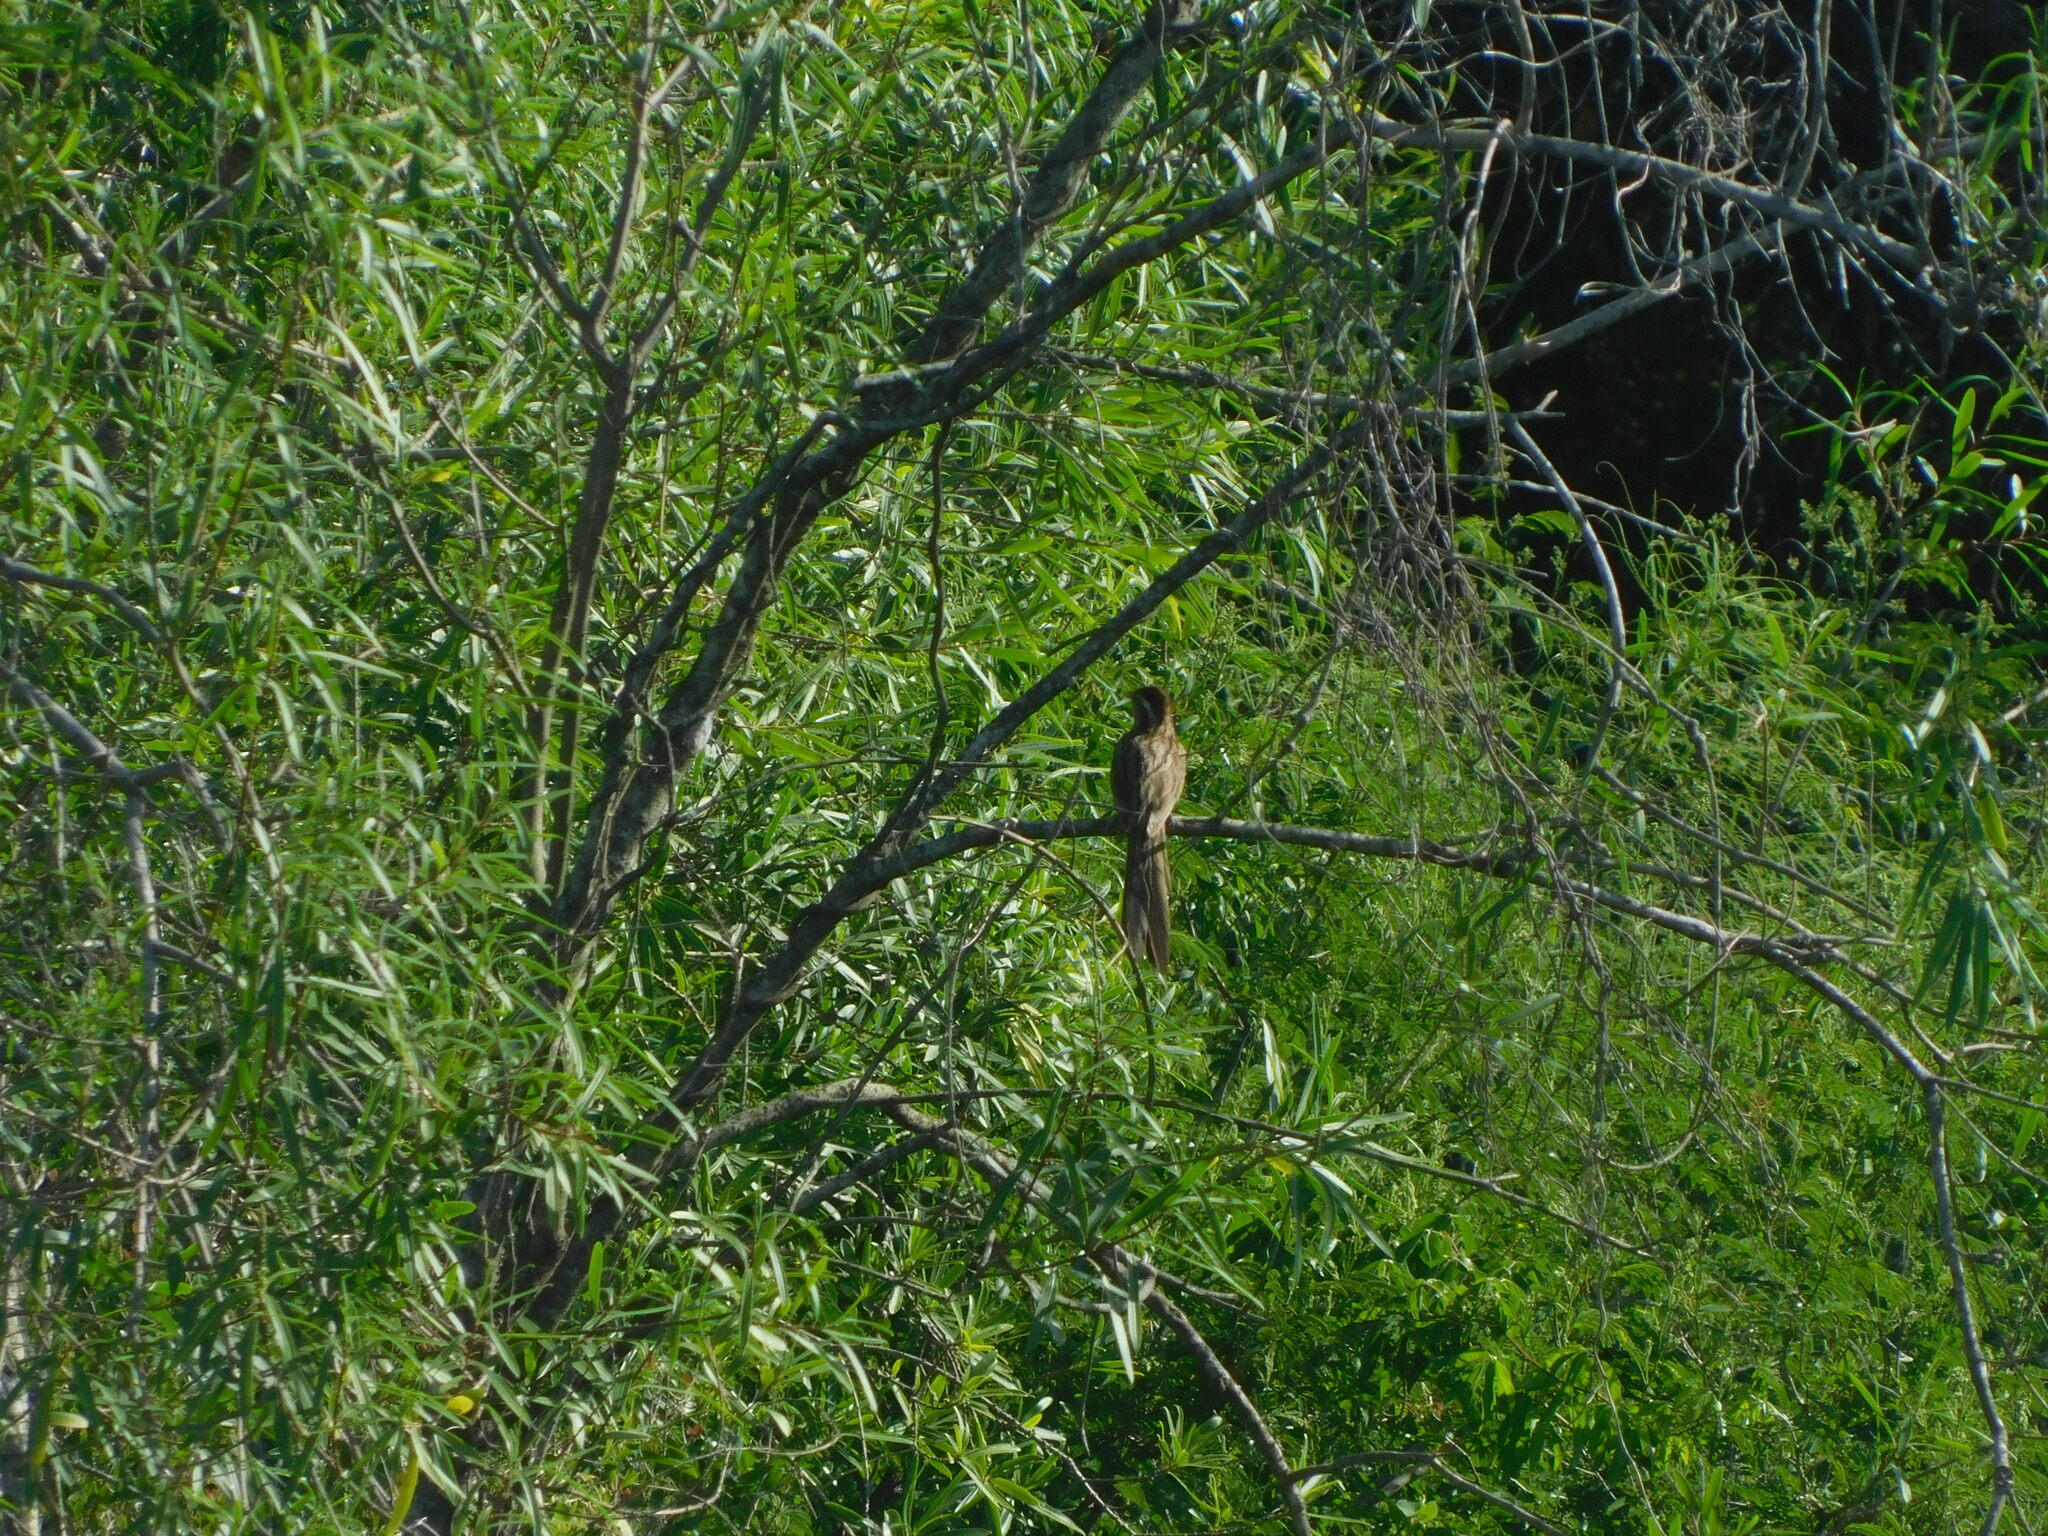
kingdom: Animalia
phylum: Chordata
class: Aves
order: Cuculiformes
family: Cuculidae
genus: Tapera
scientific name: Tapera naevia
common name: Striped cuckoo
